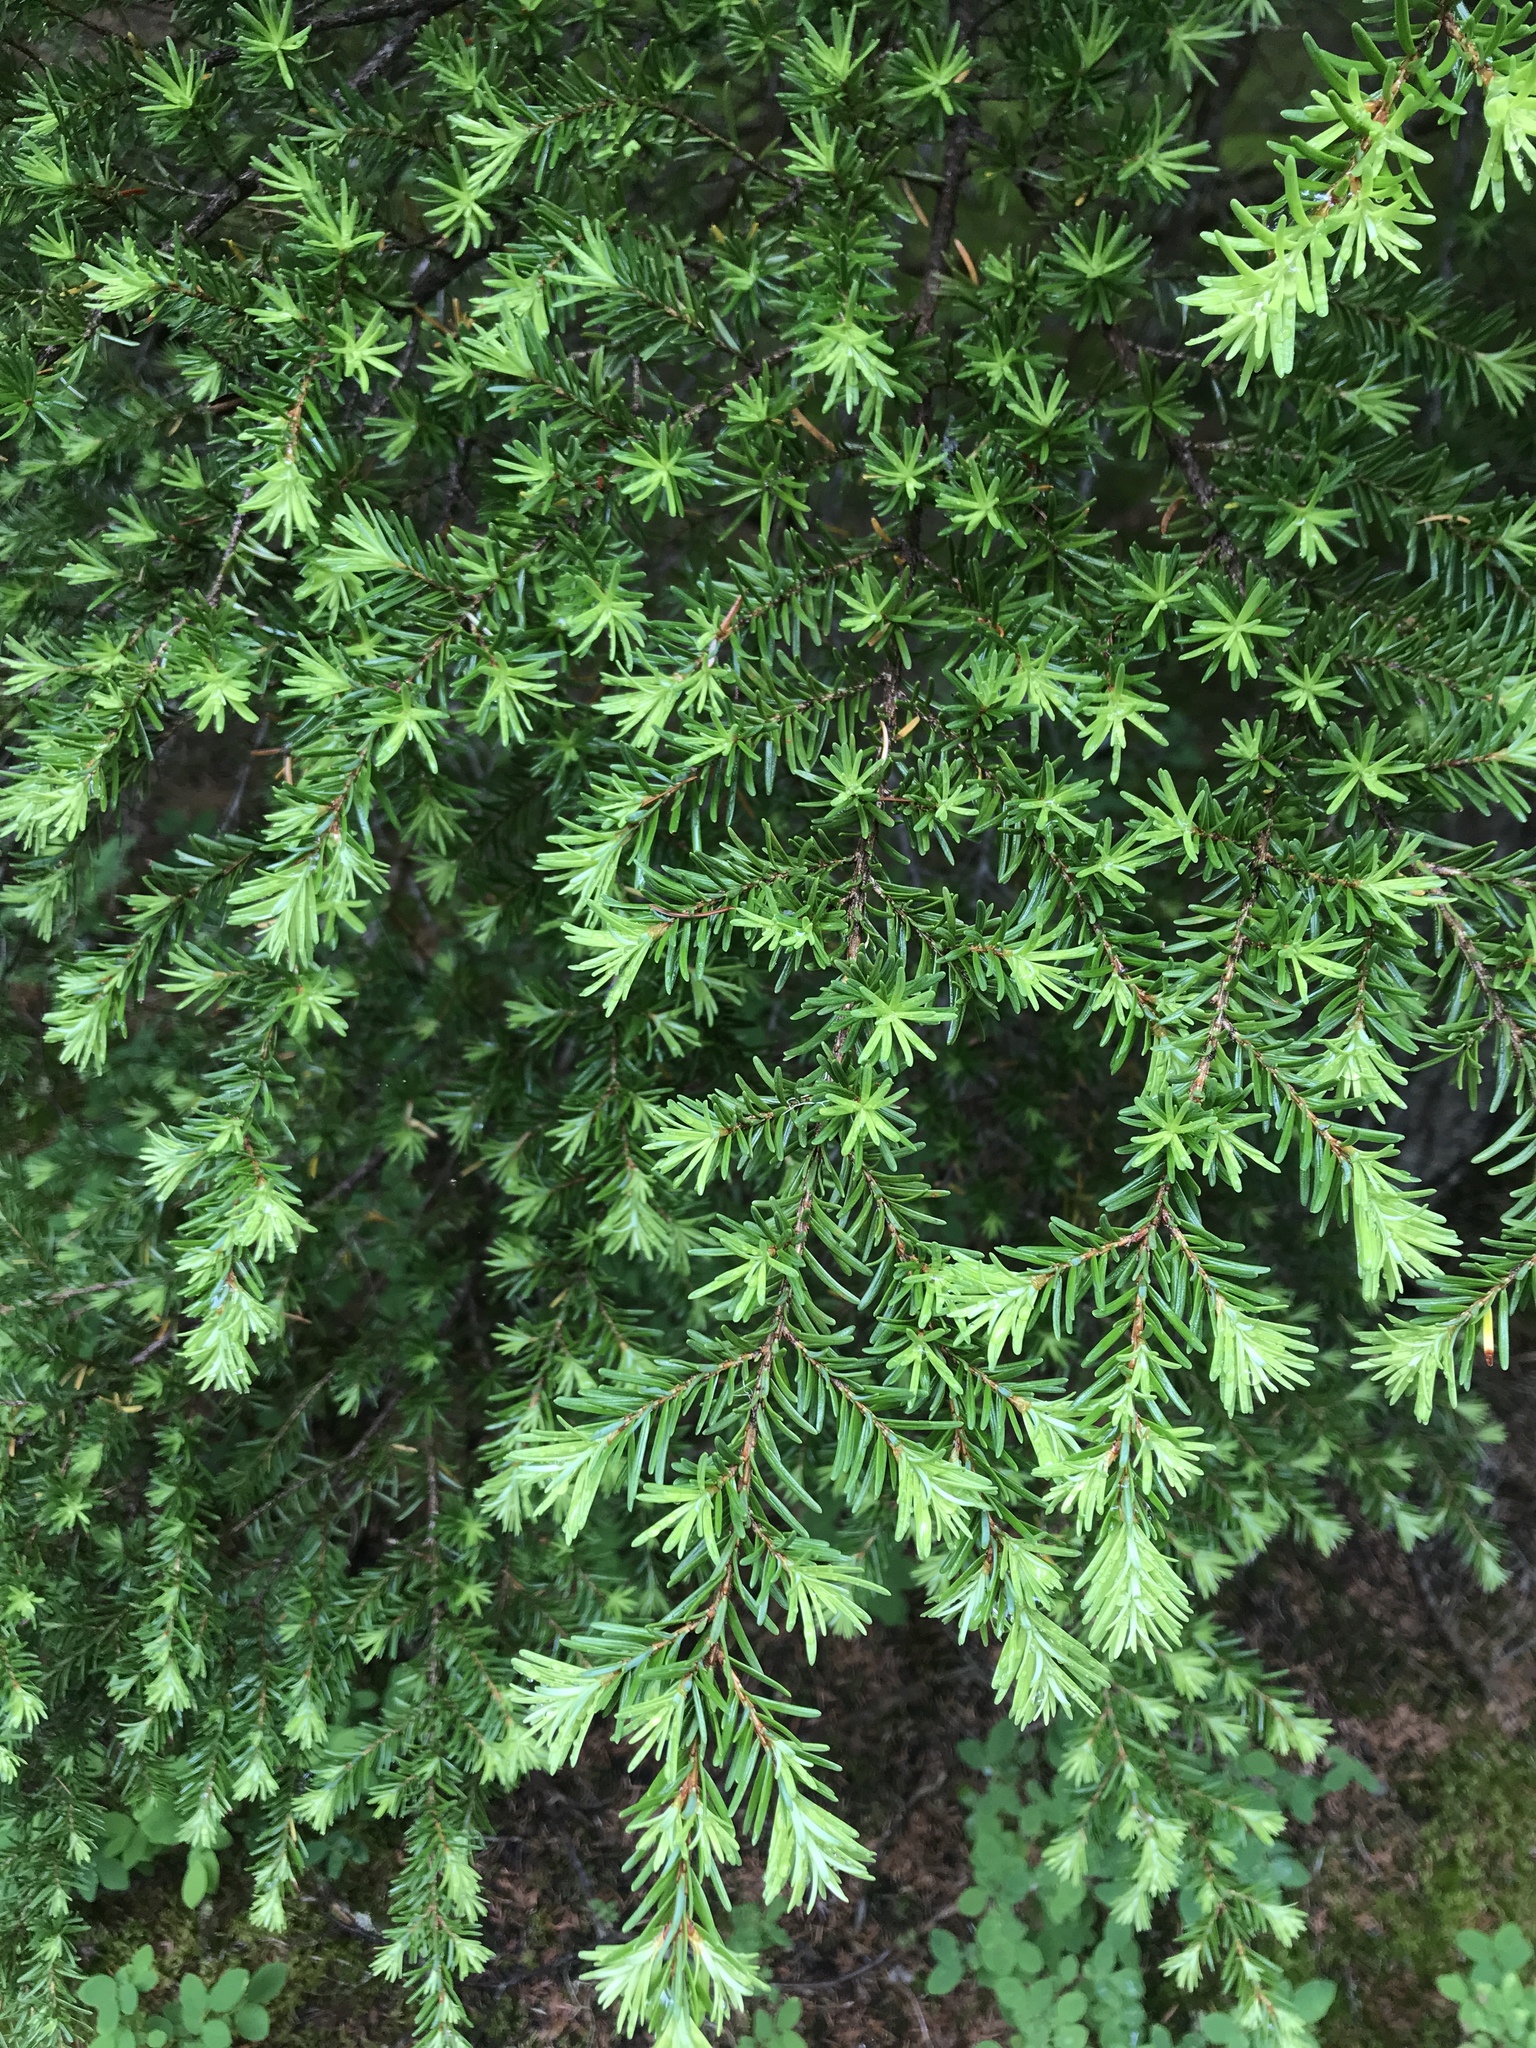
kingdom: Plantae
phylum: Tracheophyta
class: Pinopsida
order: Pinales
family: Pinaceae
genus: Tsuga
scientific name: Tsuga heterophylla
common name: Western hemlock
